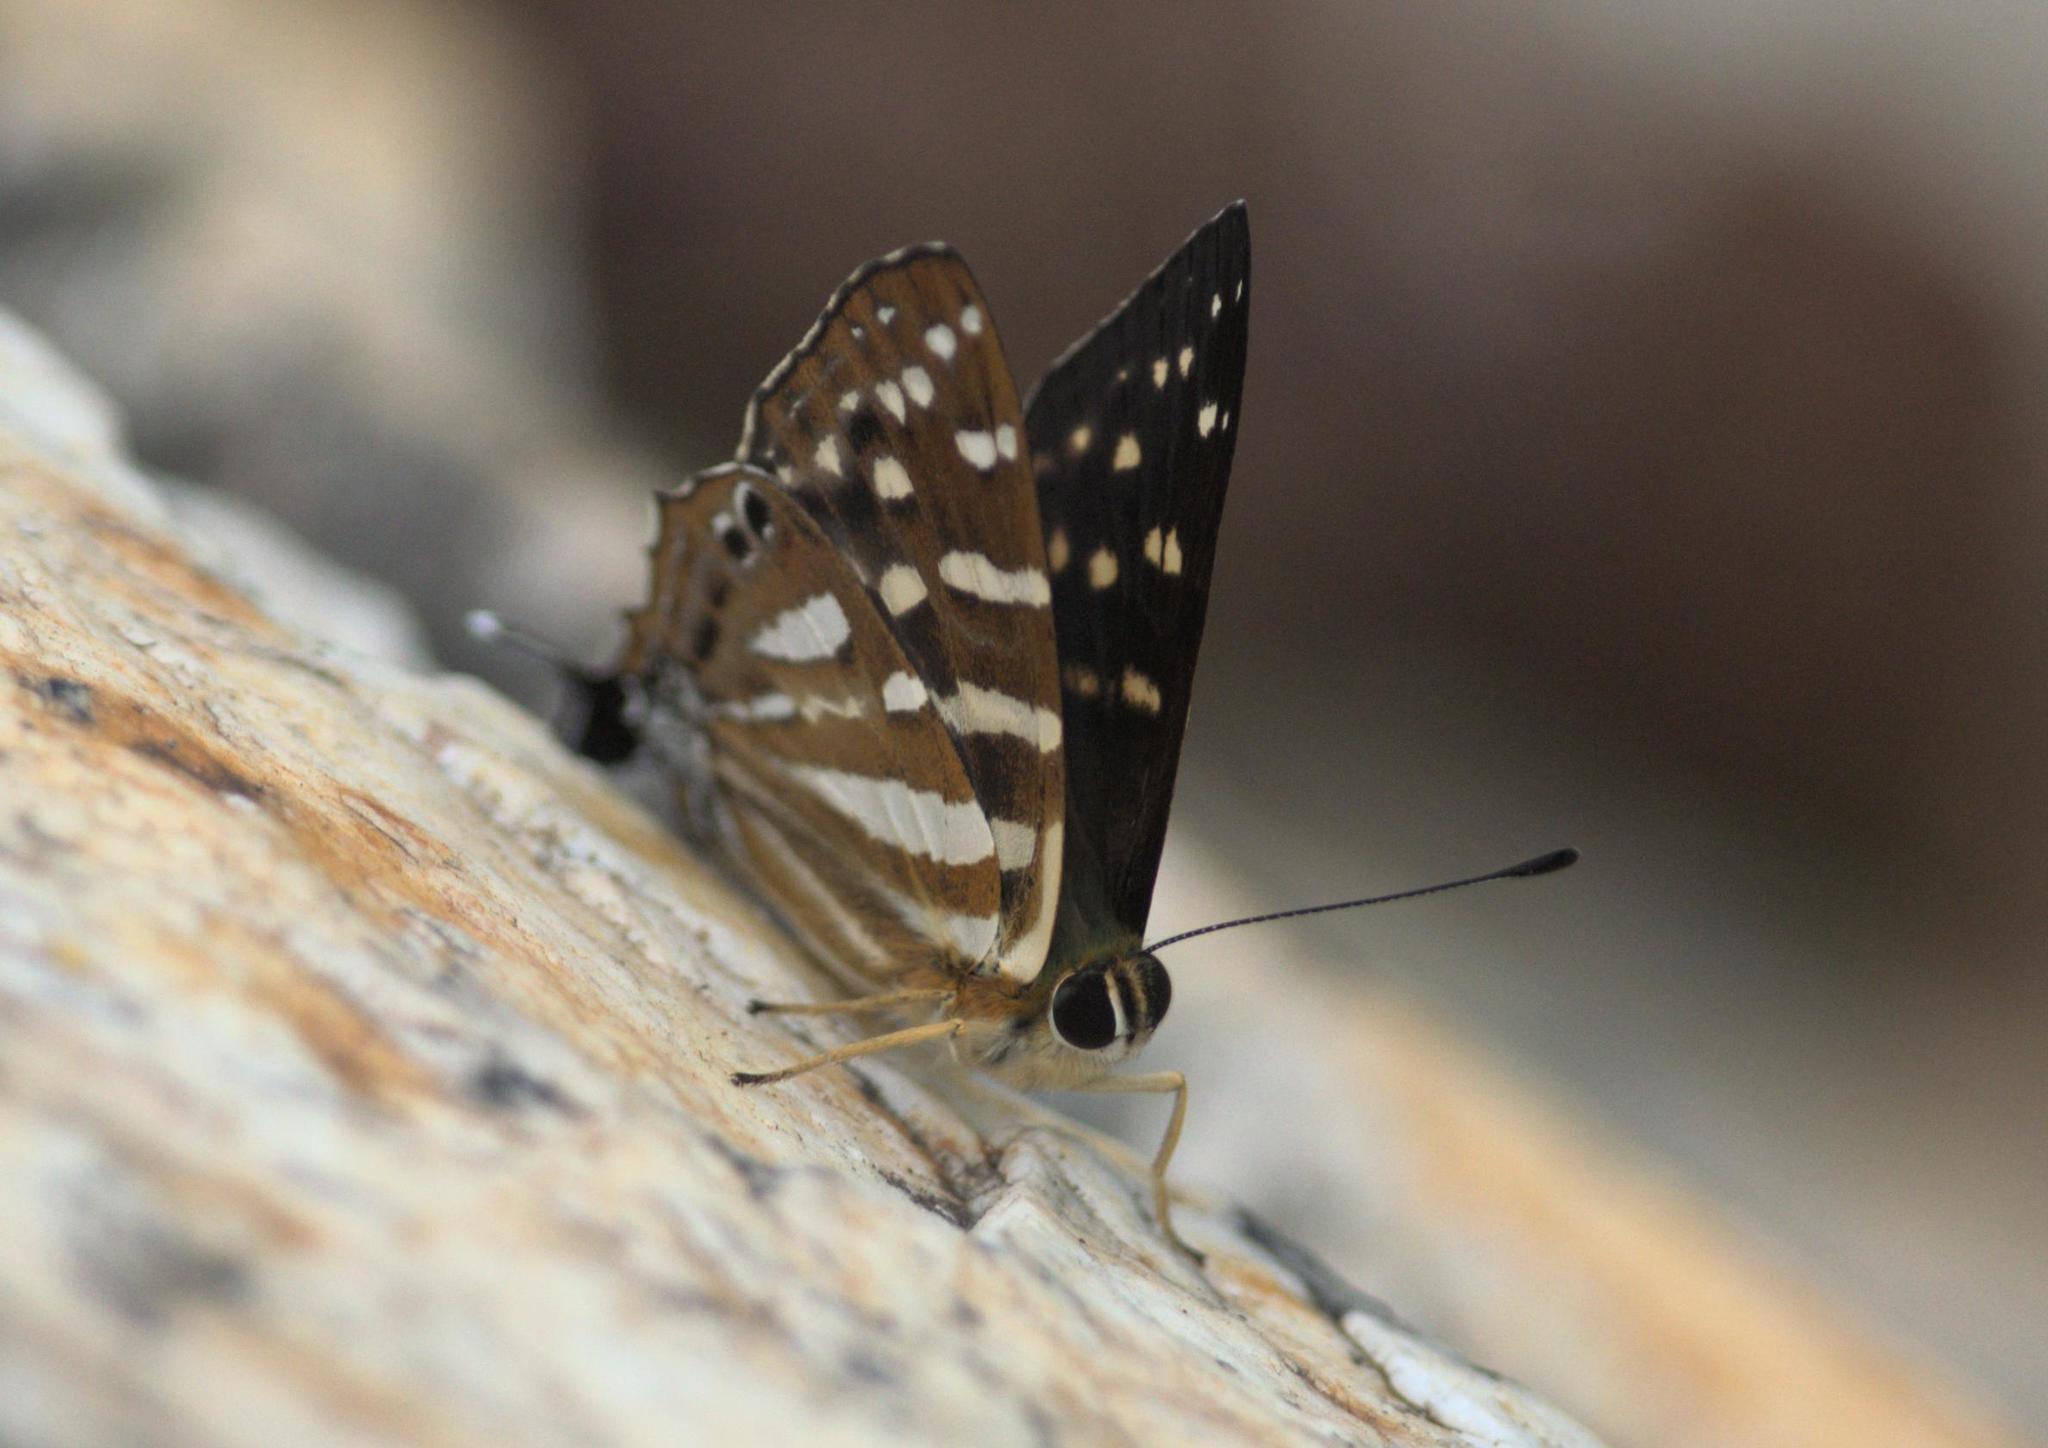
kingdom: Animalia
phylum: Arthropoda
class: Insecta
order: Lepidoptera
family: Lycaenidae
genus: Dodona
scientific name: Dodona eugenes
